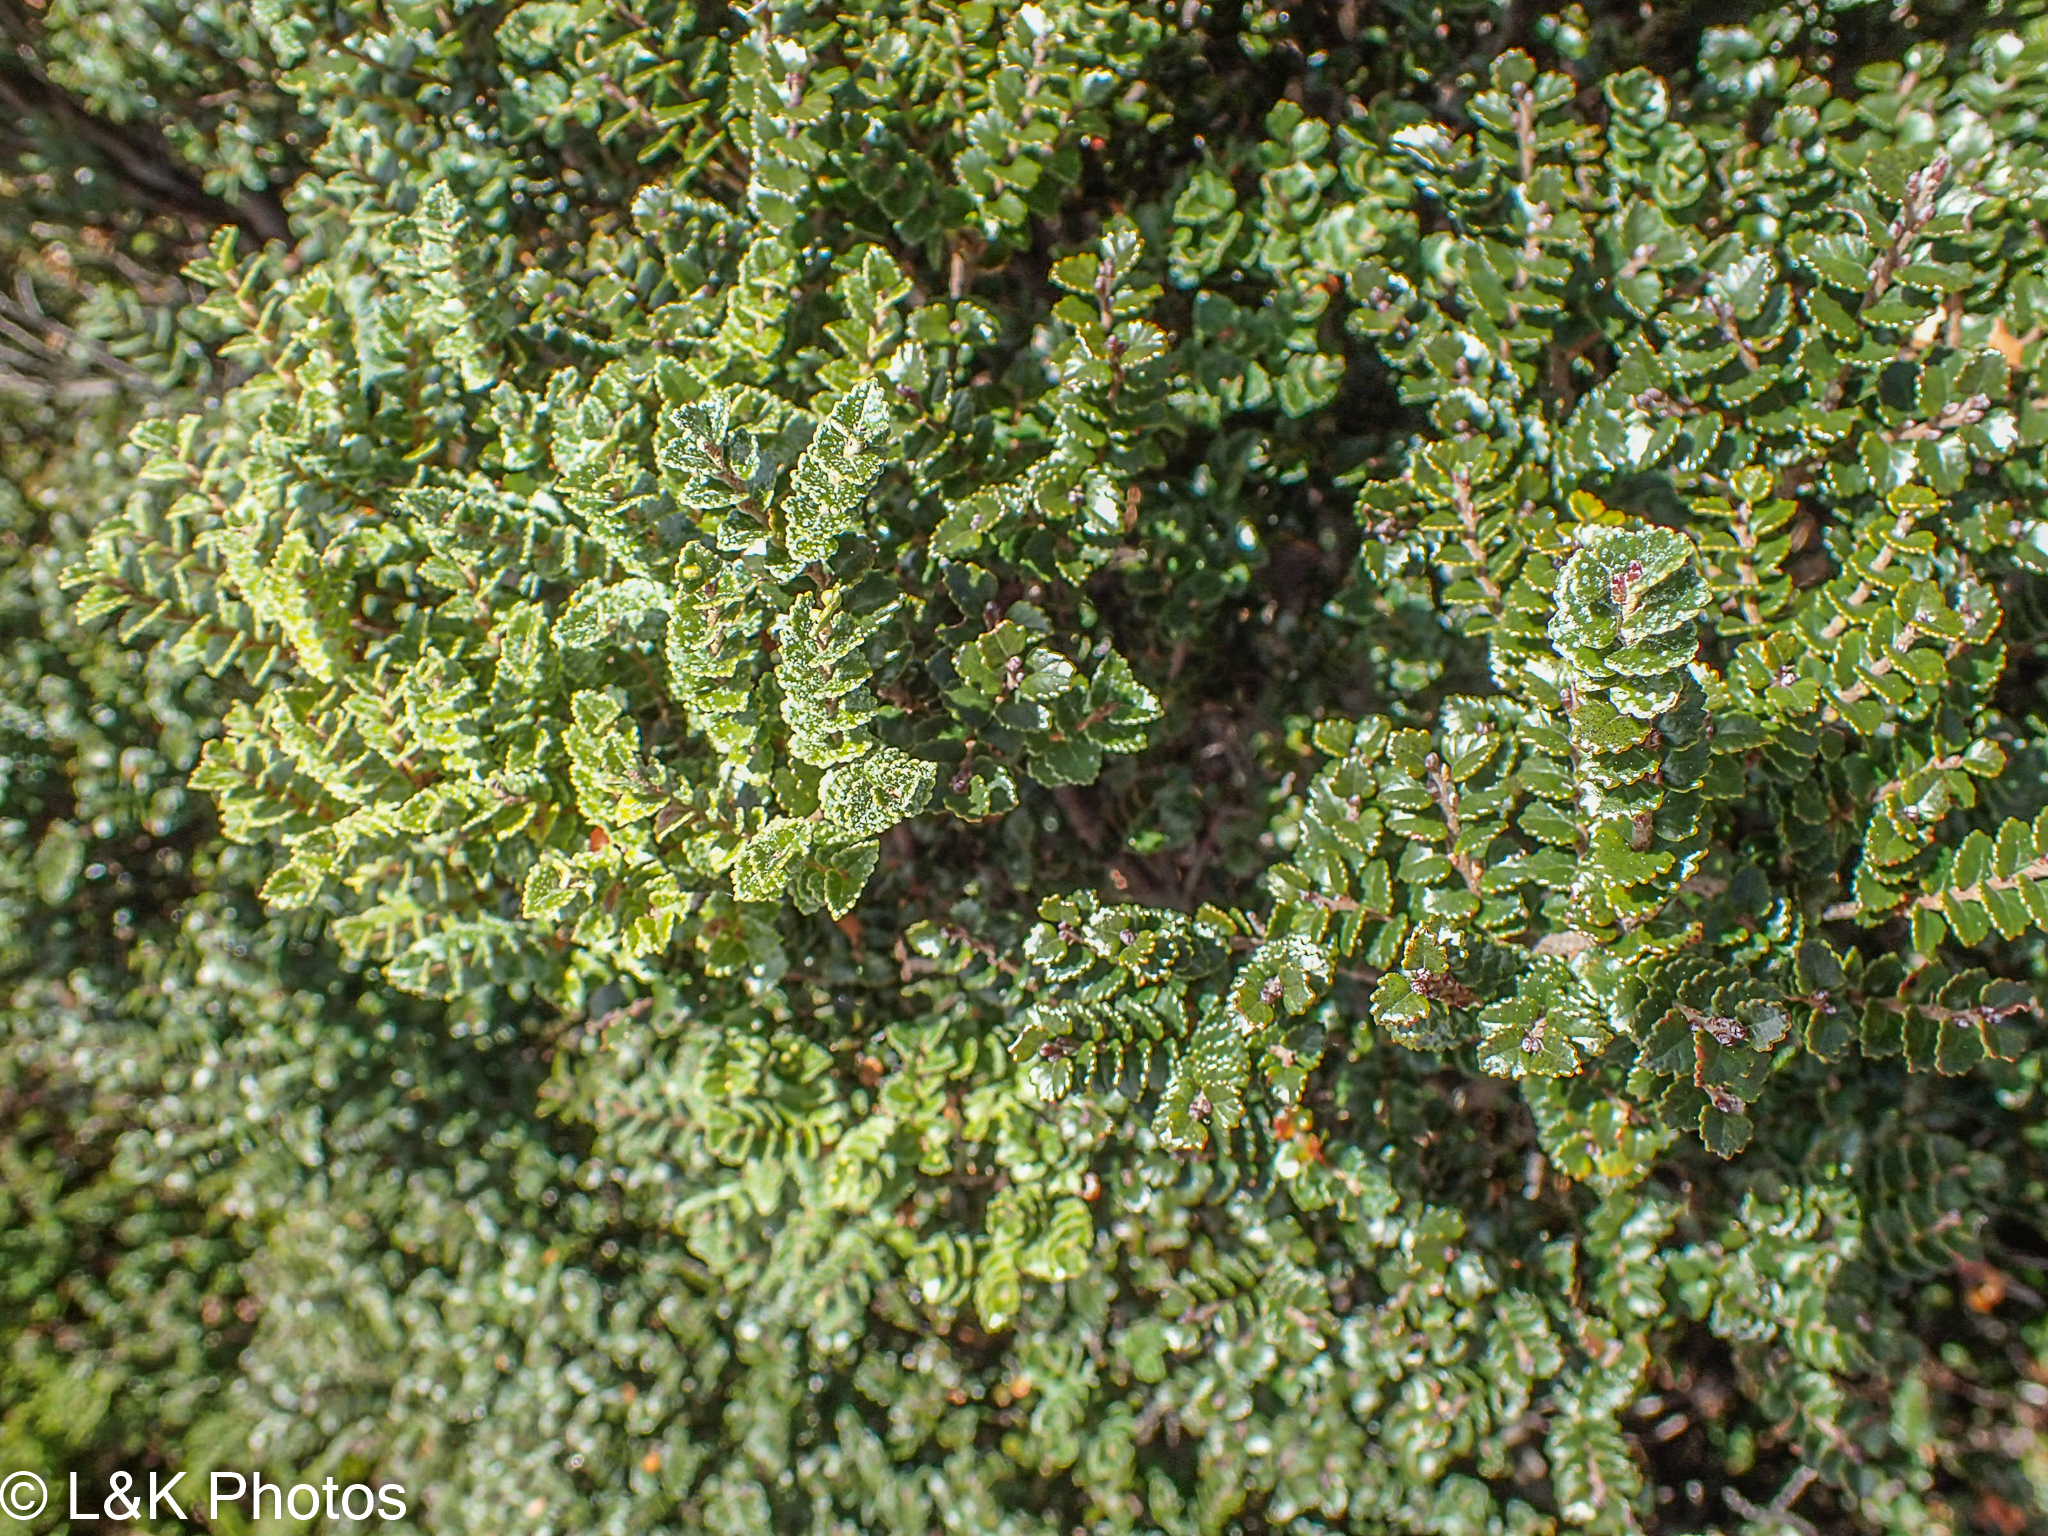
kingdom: Plantae
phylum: Tracheophyta
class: Magnoliopsida
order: Fagales
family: Nothofagaceae
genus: Nothofagus
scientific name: Nothofagus cunninghamii
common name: Myrtle beech
